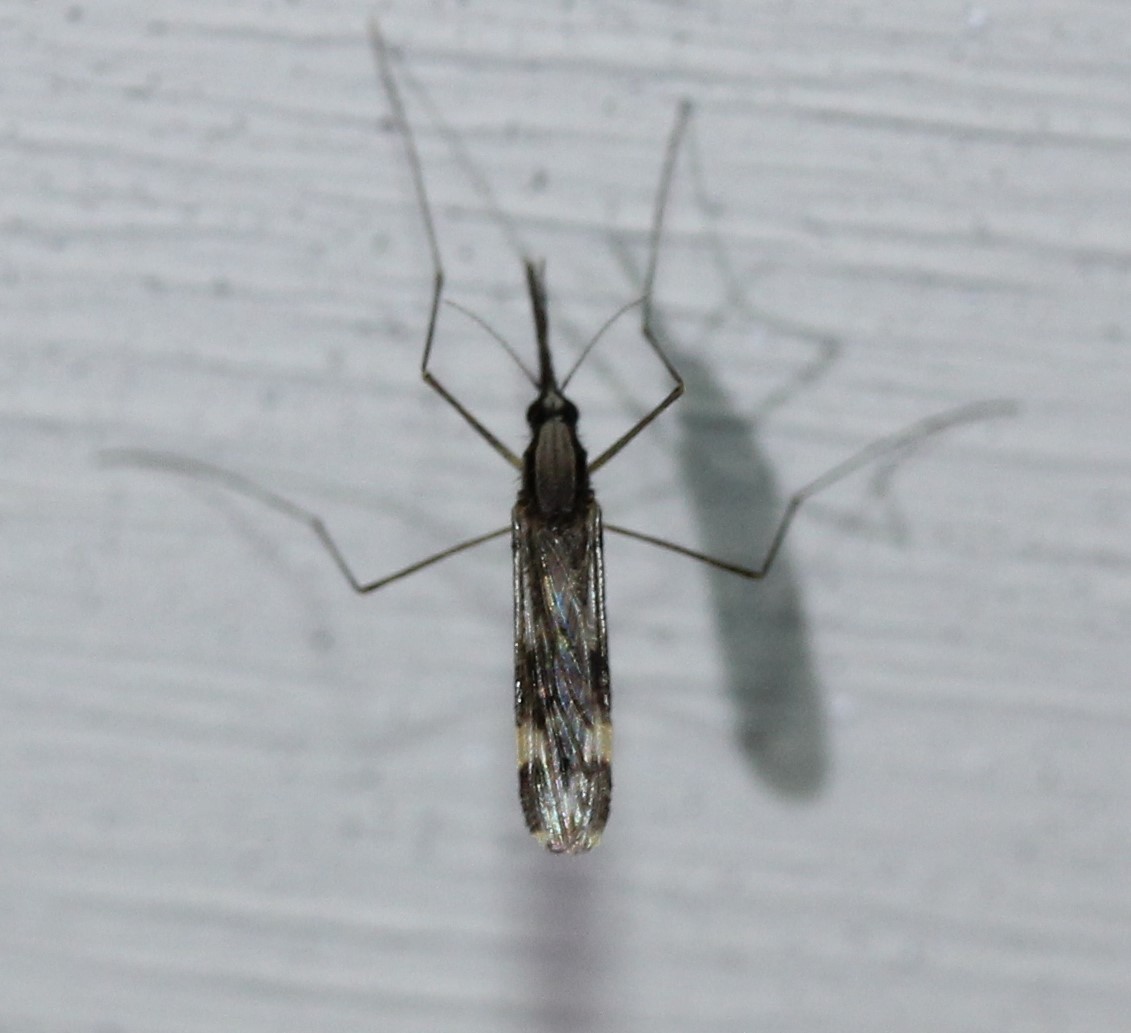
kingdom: Animalia
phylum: Arthropoda
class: Insecta
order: Diptera
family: Culicidae
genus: Anopheles
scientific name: Anopheles punctipennis
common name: Woodland malaria mosquito
